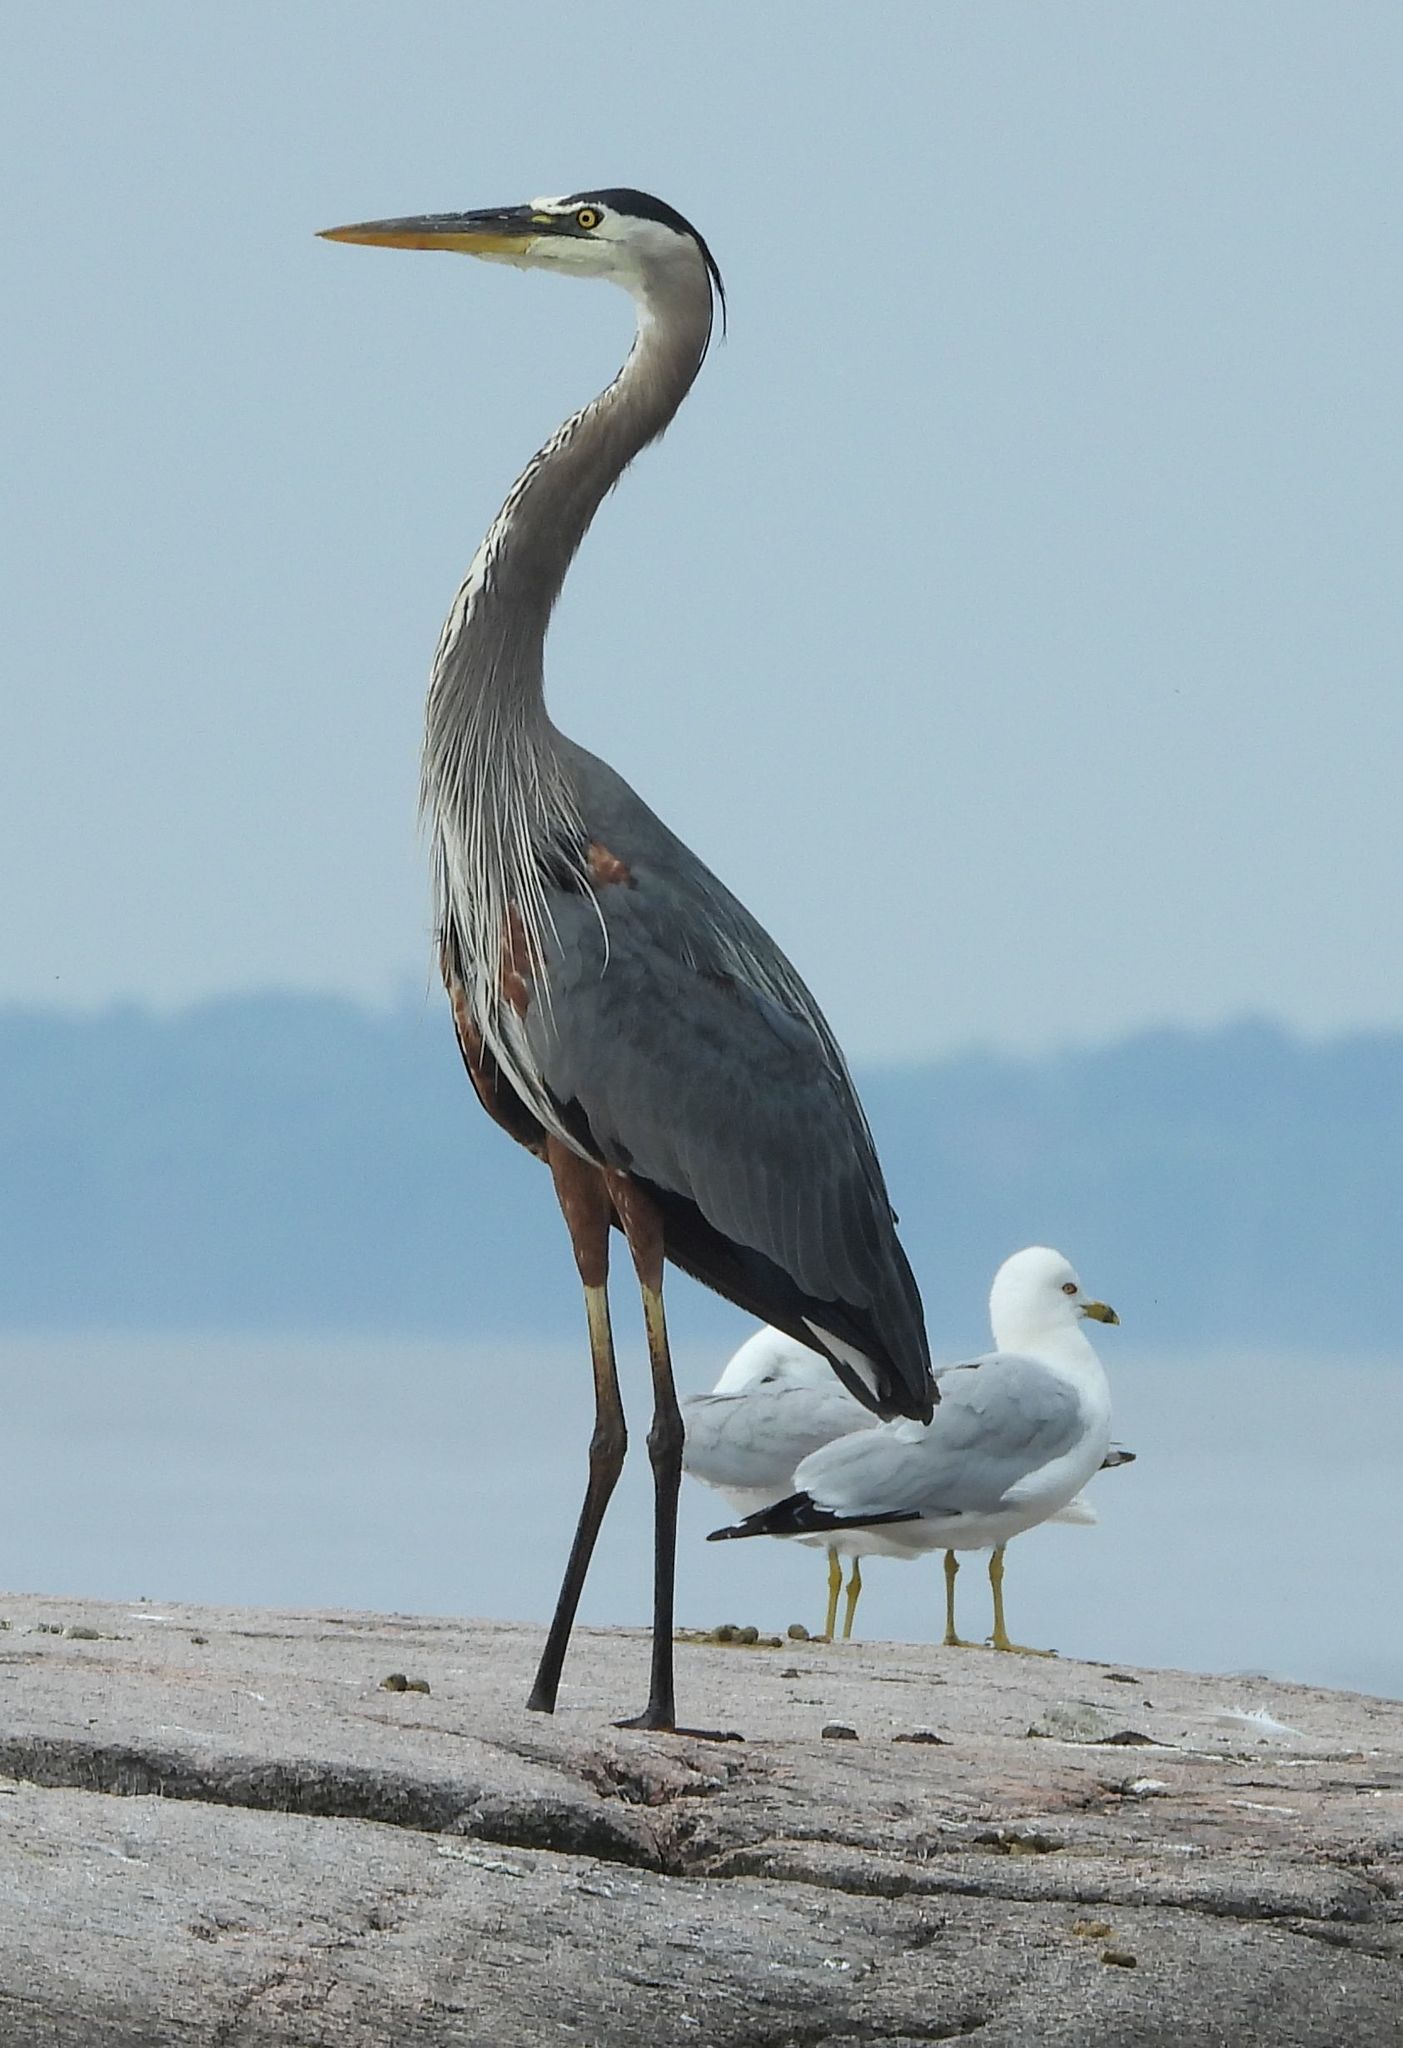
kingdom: Animalia
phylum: Chordata
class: Aves
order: Pelecaniformes
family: Ardeidae
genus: Ardea
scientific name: Ardea herodias
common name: Great blue heron
